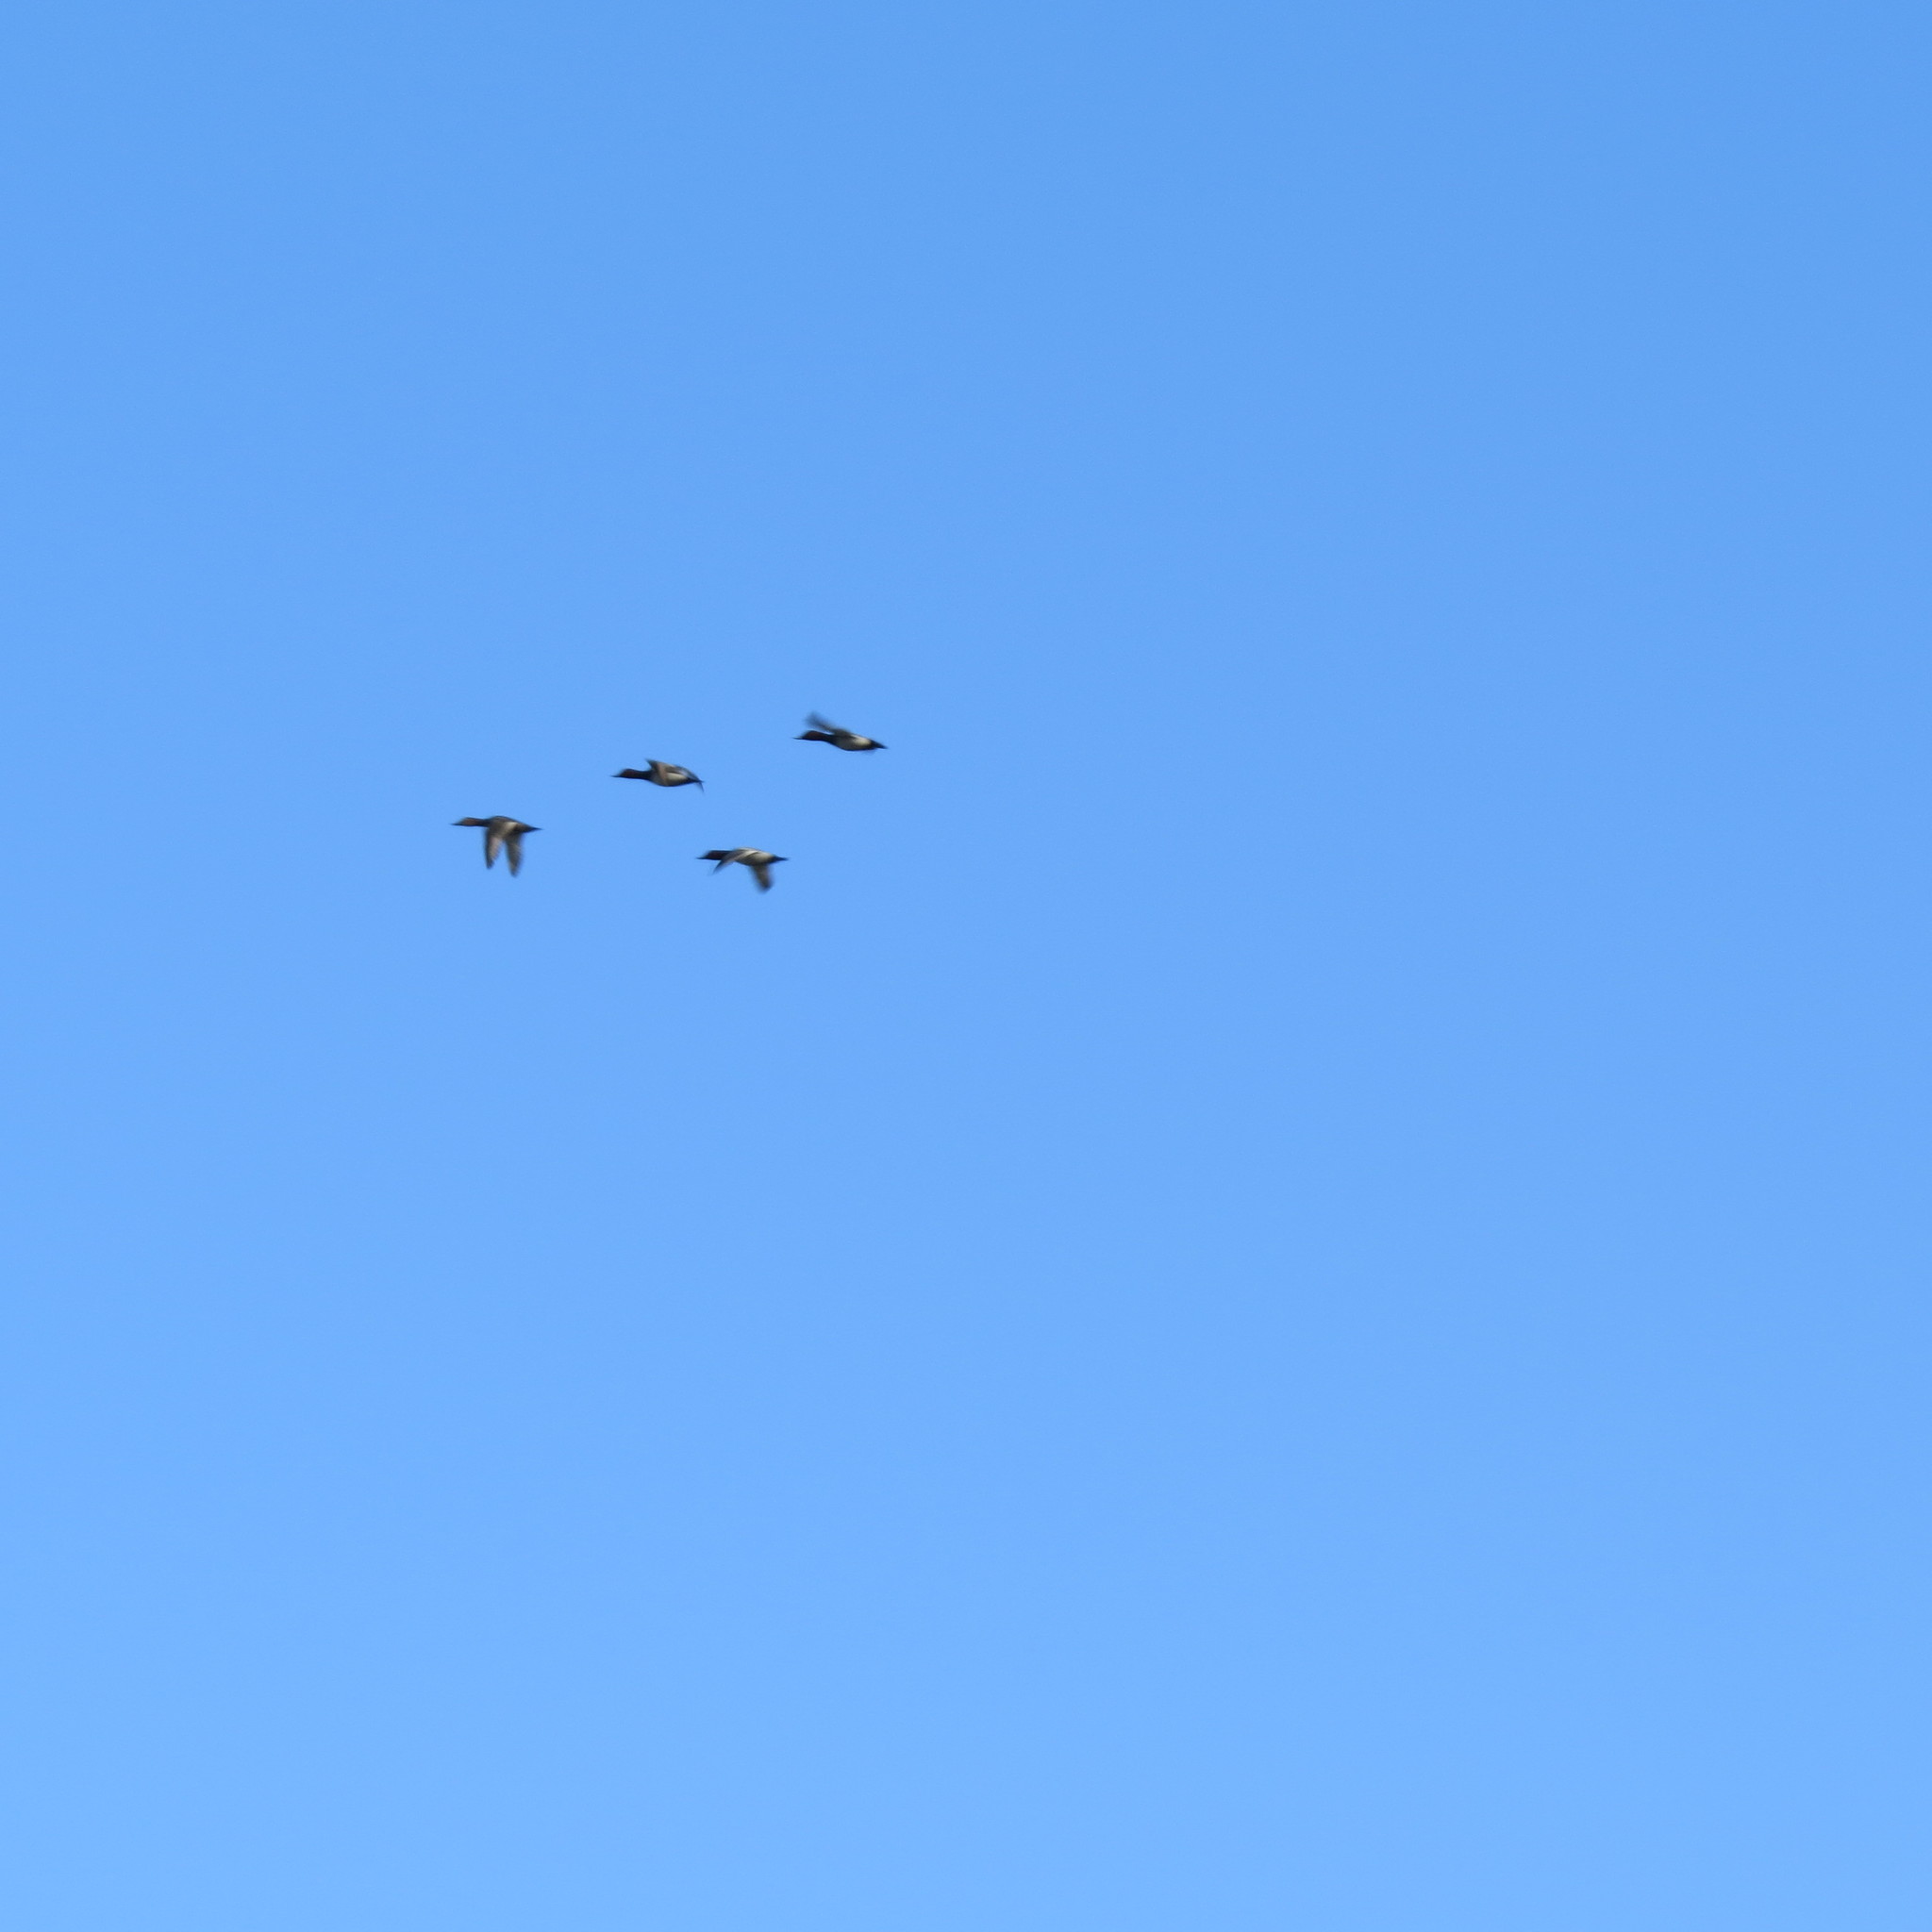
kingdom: Animalia
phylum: Chordata
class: Aves
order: Anseriformes
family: Anatidae
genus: Aythya
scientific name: Aythya ferina
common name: Common pochard
